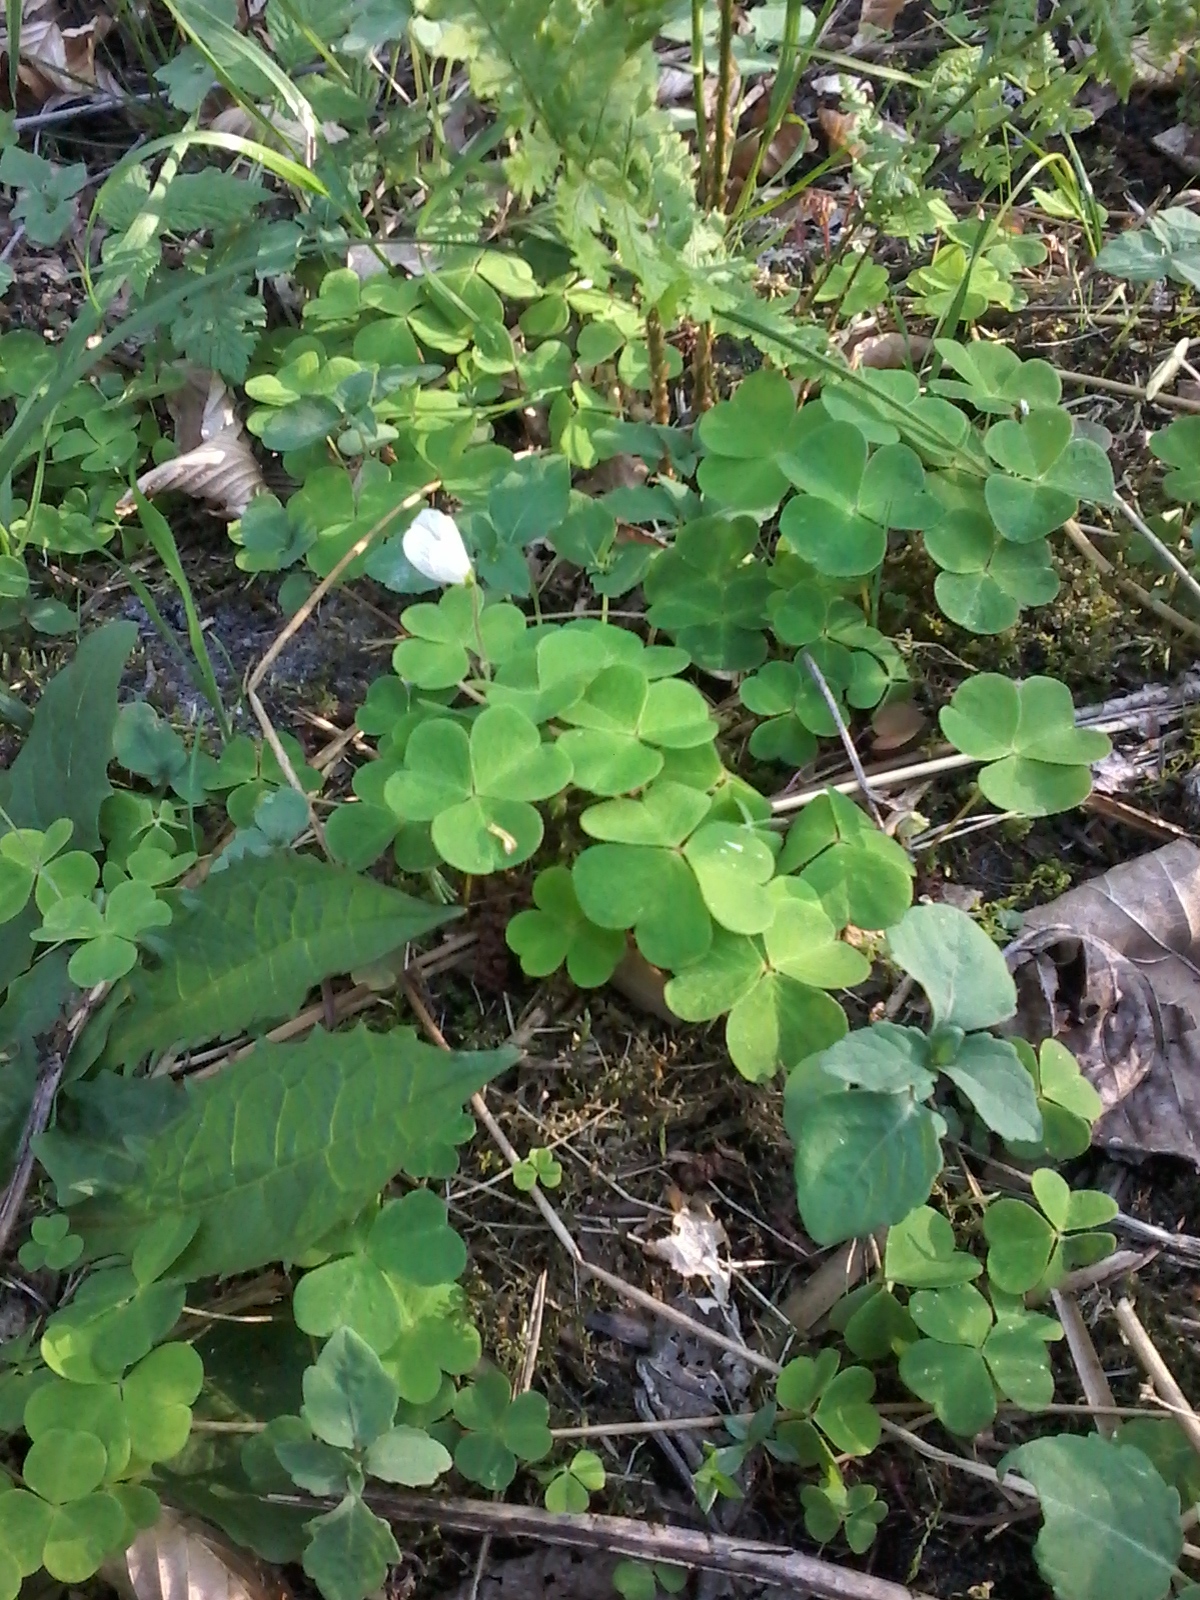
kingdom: Plantae
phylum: Tracheophyta
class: Magnoliopsida
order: Oxalidales
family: Oxalidaceae
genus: Oxalis
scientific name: Oxalis acetosella
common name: Wood-sorrel
